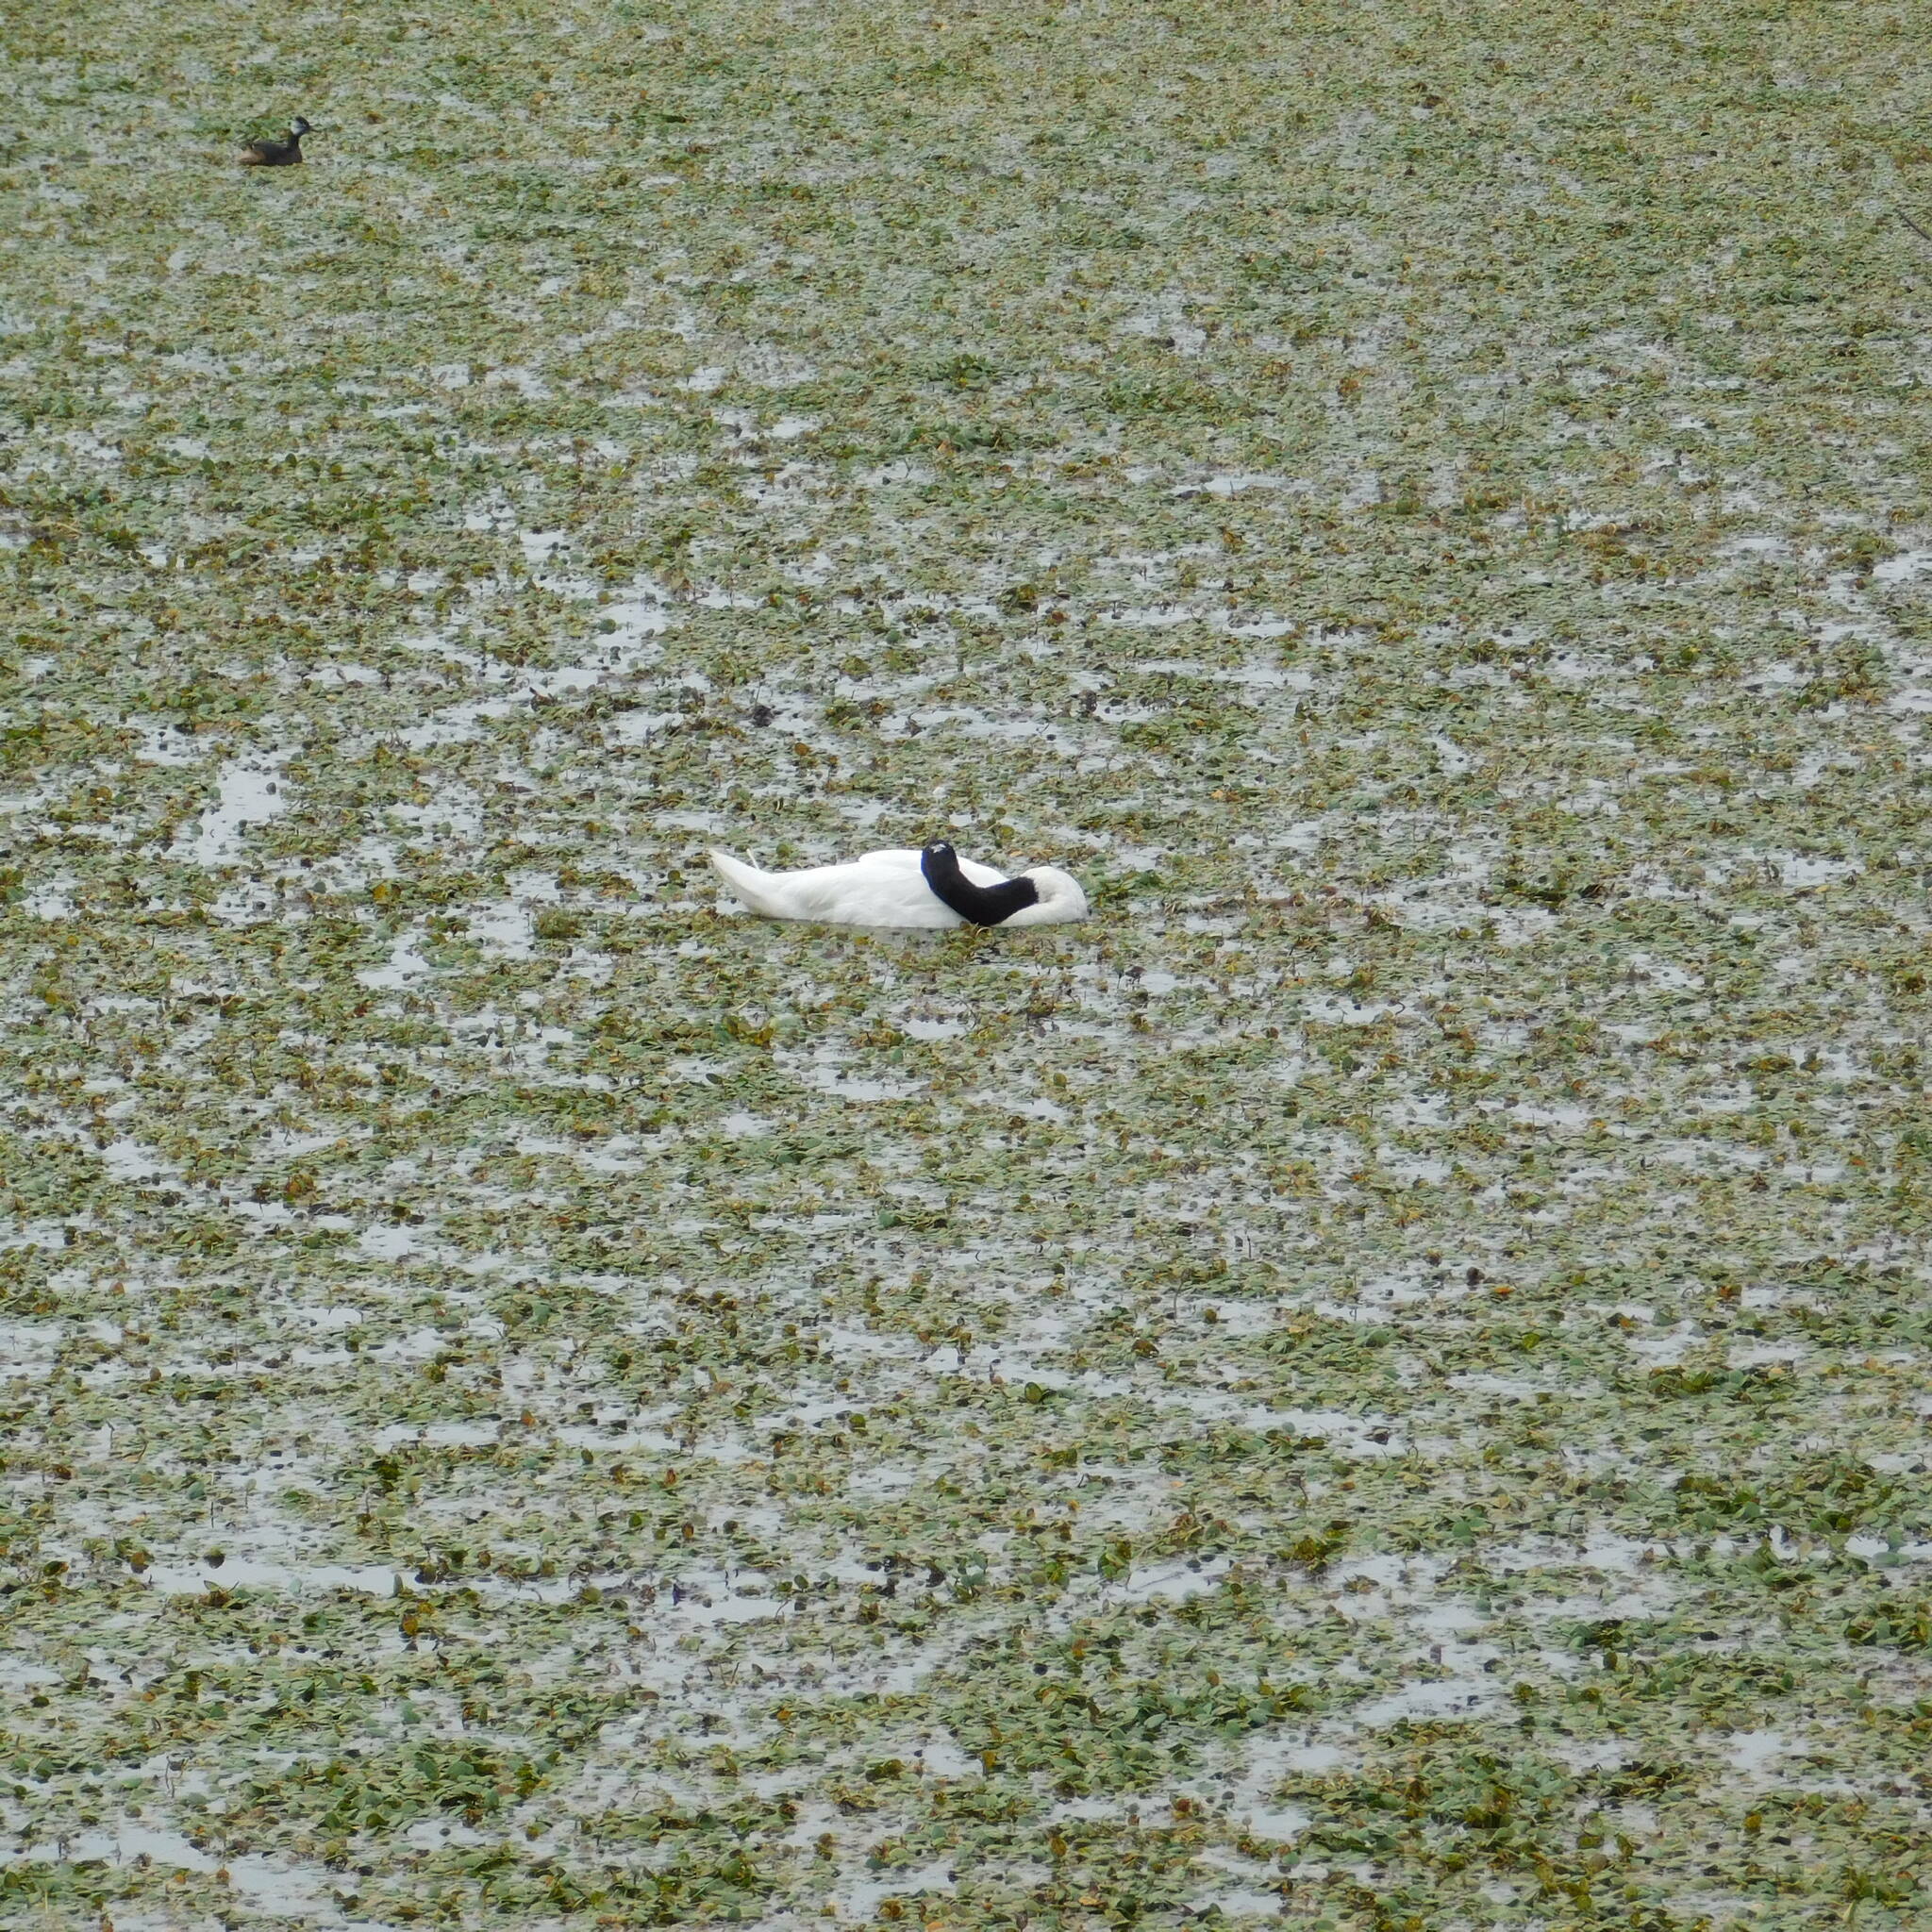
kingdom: Animalia
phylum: Chordata
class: Aves
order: Anseriformes
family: Anatidae
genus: Cygnus
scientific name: Cygnus melancoryphus
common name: Black-necked swan
